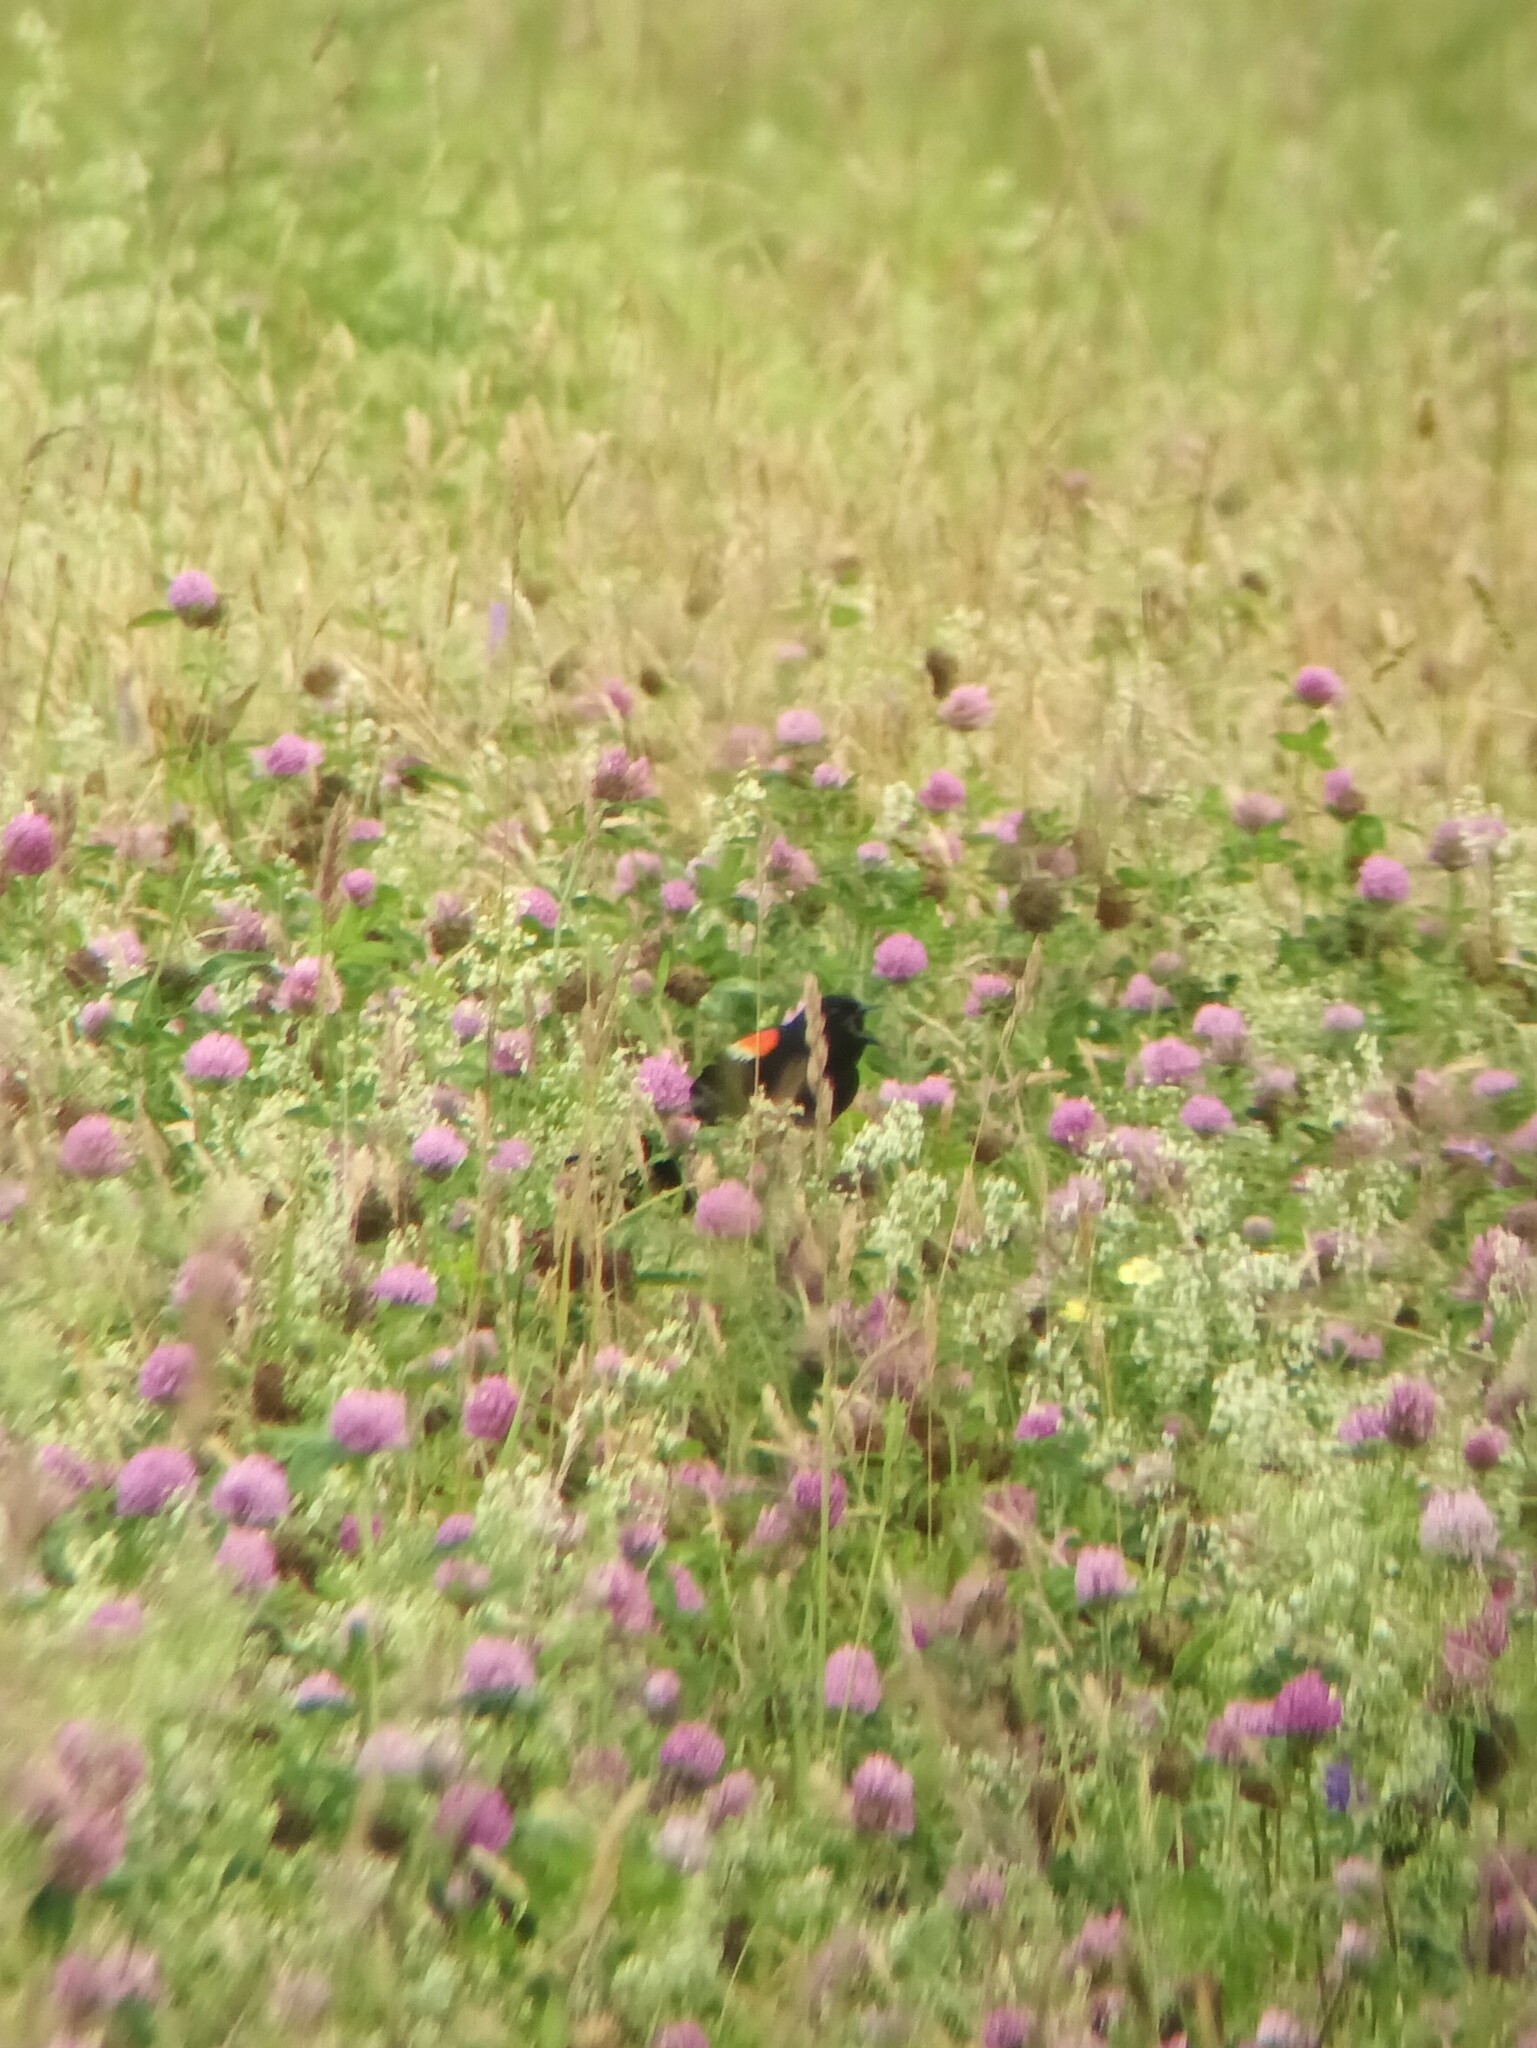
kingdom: Animalia
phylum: Chordata
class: Aves
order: Passeriformes
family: Icteridae
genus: Agelaius
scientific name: Agelaius phoeniceus
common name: Red-winged blackbird
